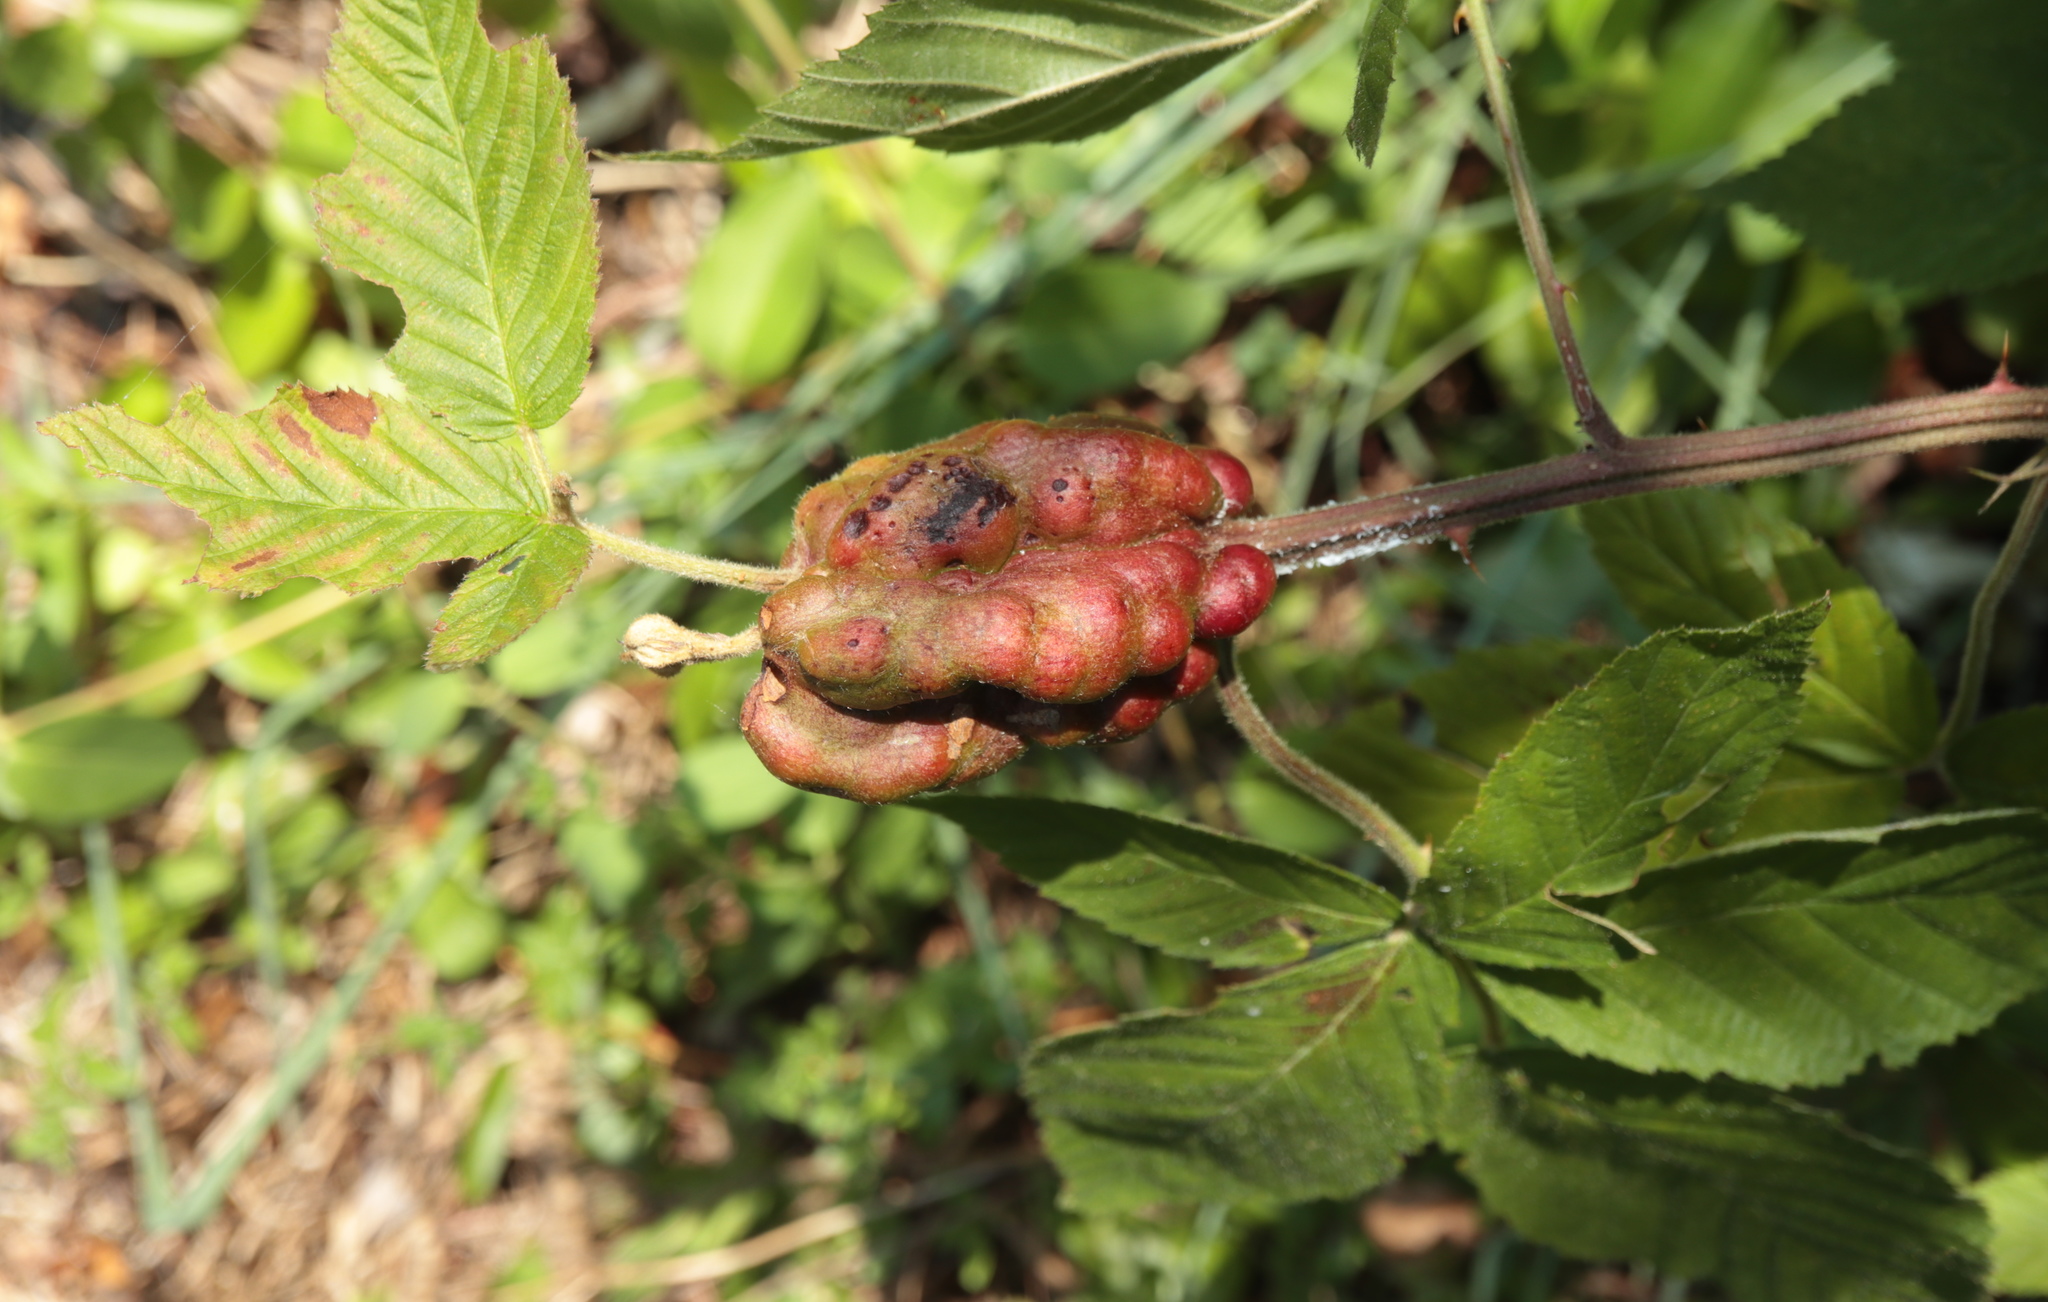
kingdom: Animalia
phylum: Arthropoda
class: Insecta
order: Hymenoptera
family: Cynipidae
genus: Diastrophus
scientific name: Diastrophus
